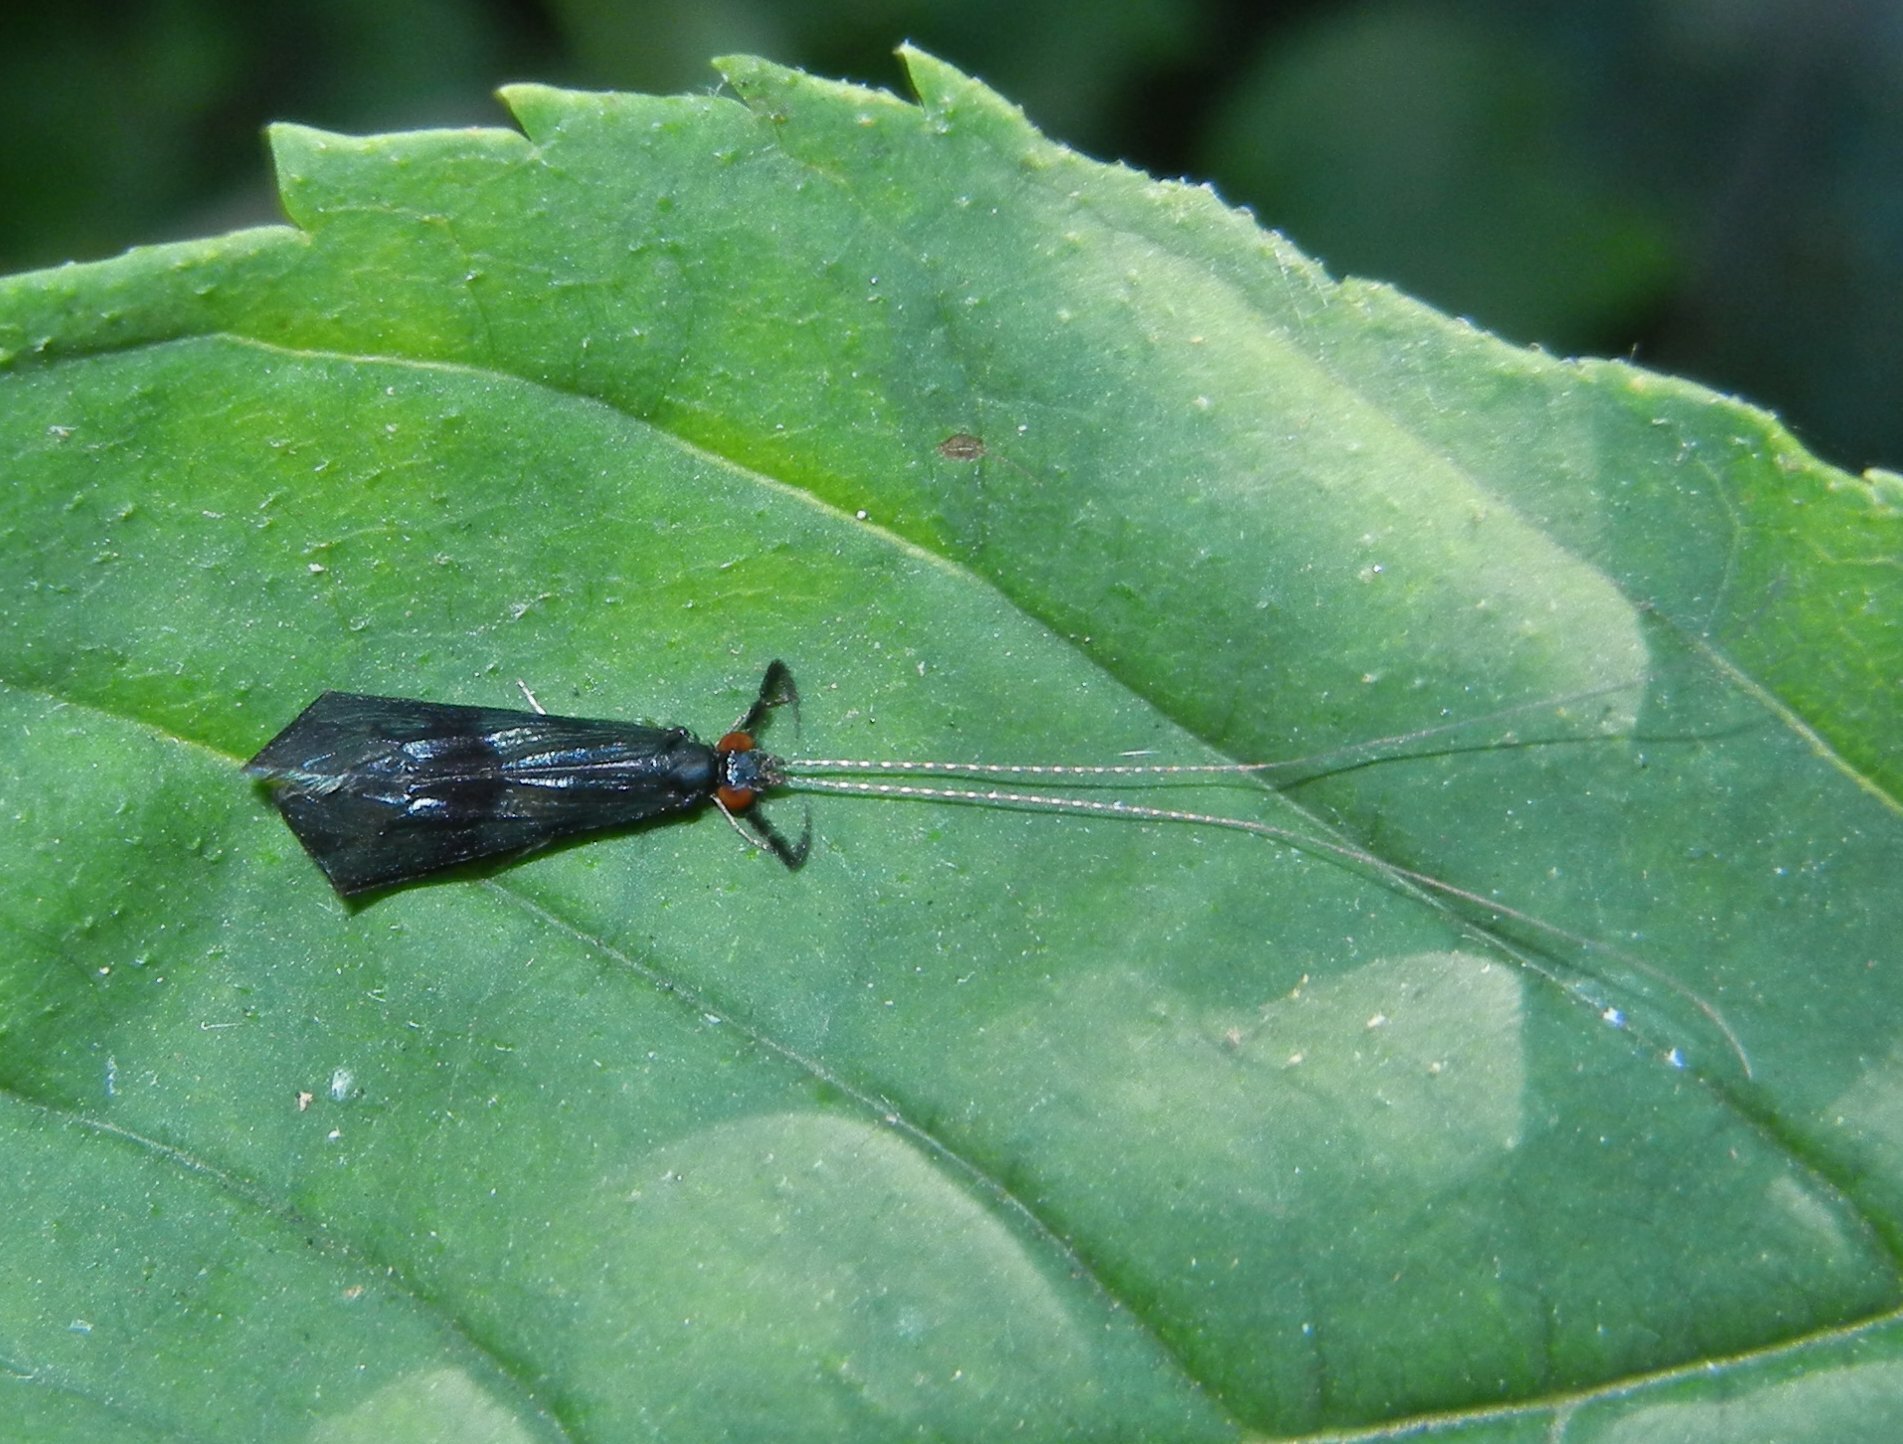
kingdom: Animalia
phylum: Arthropoda
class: Insecta
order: Trichoptera
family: Leptoceridae
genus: Mystacides
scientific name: Mystacides azureus
